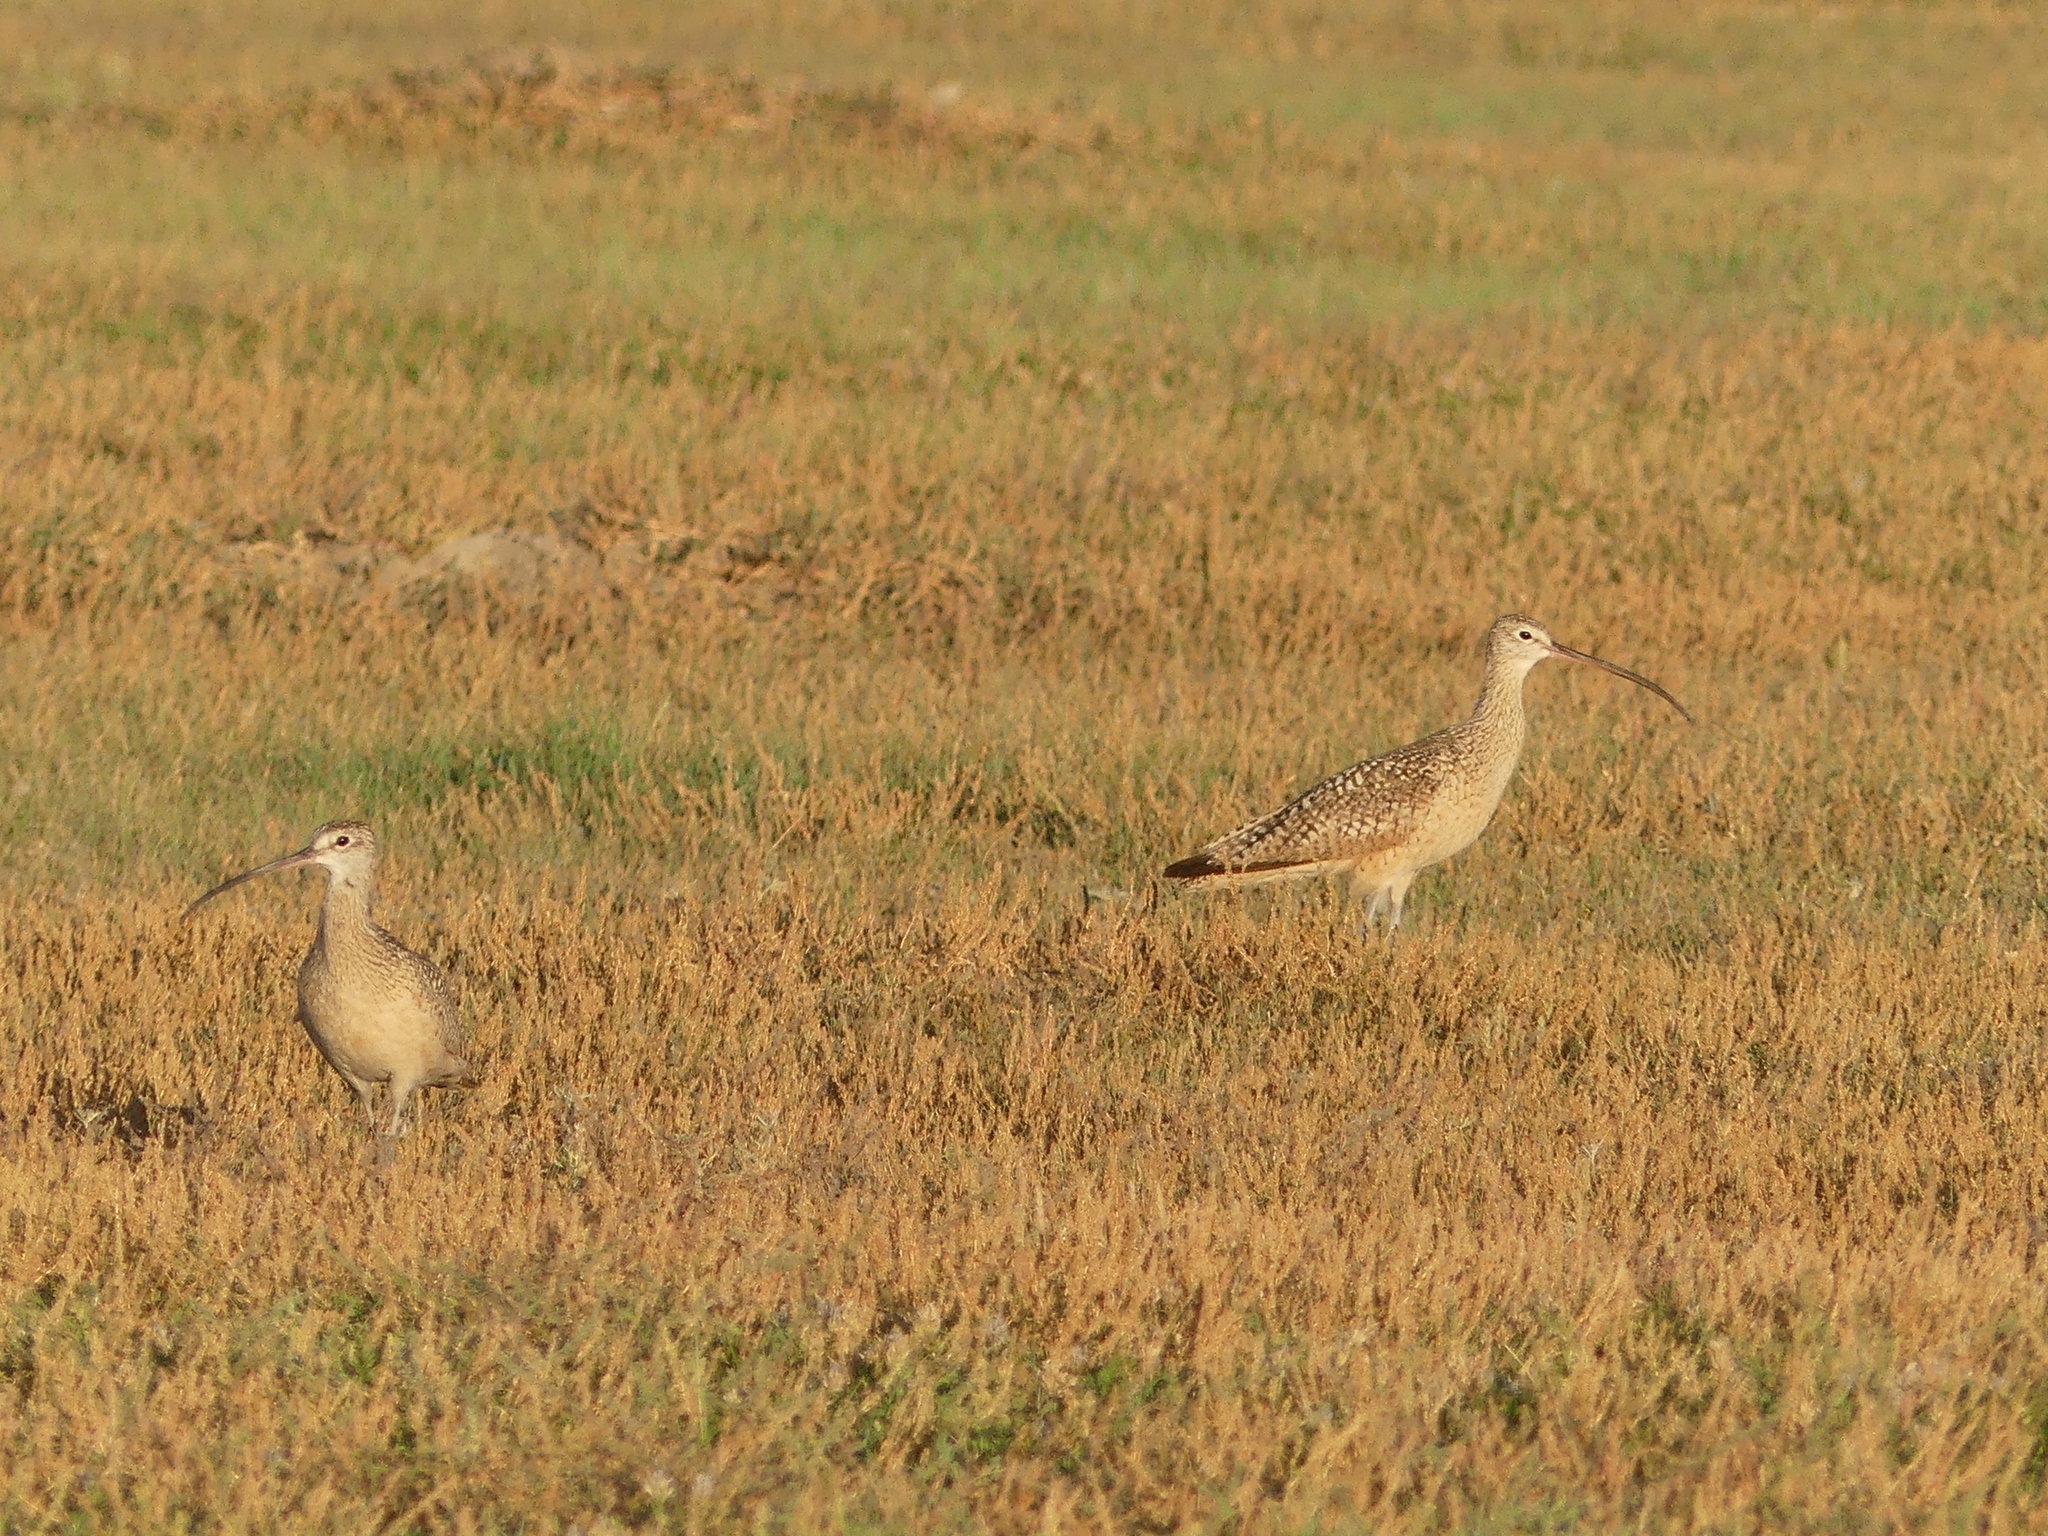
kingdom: Animalia
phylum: Chordata
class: Aves
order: Charadriiformes
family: Scolopacidae
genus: Numenius
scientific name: Numenius americanus
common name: Long-billed curlew
